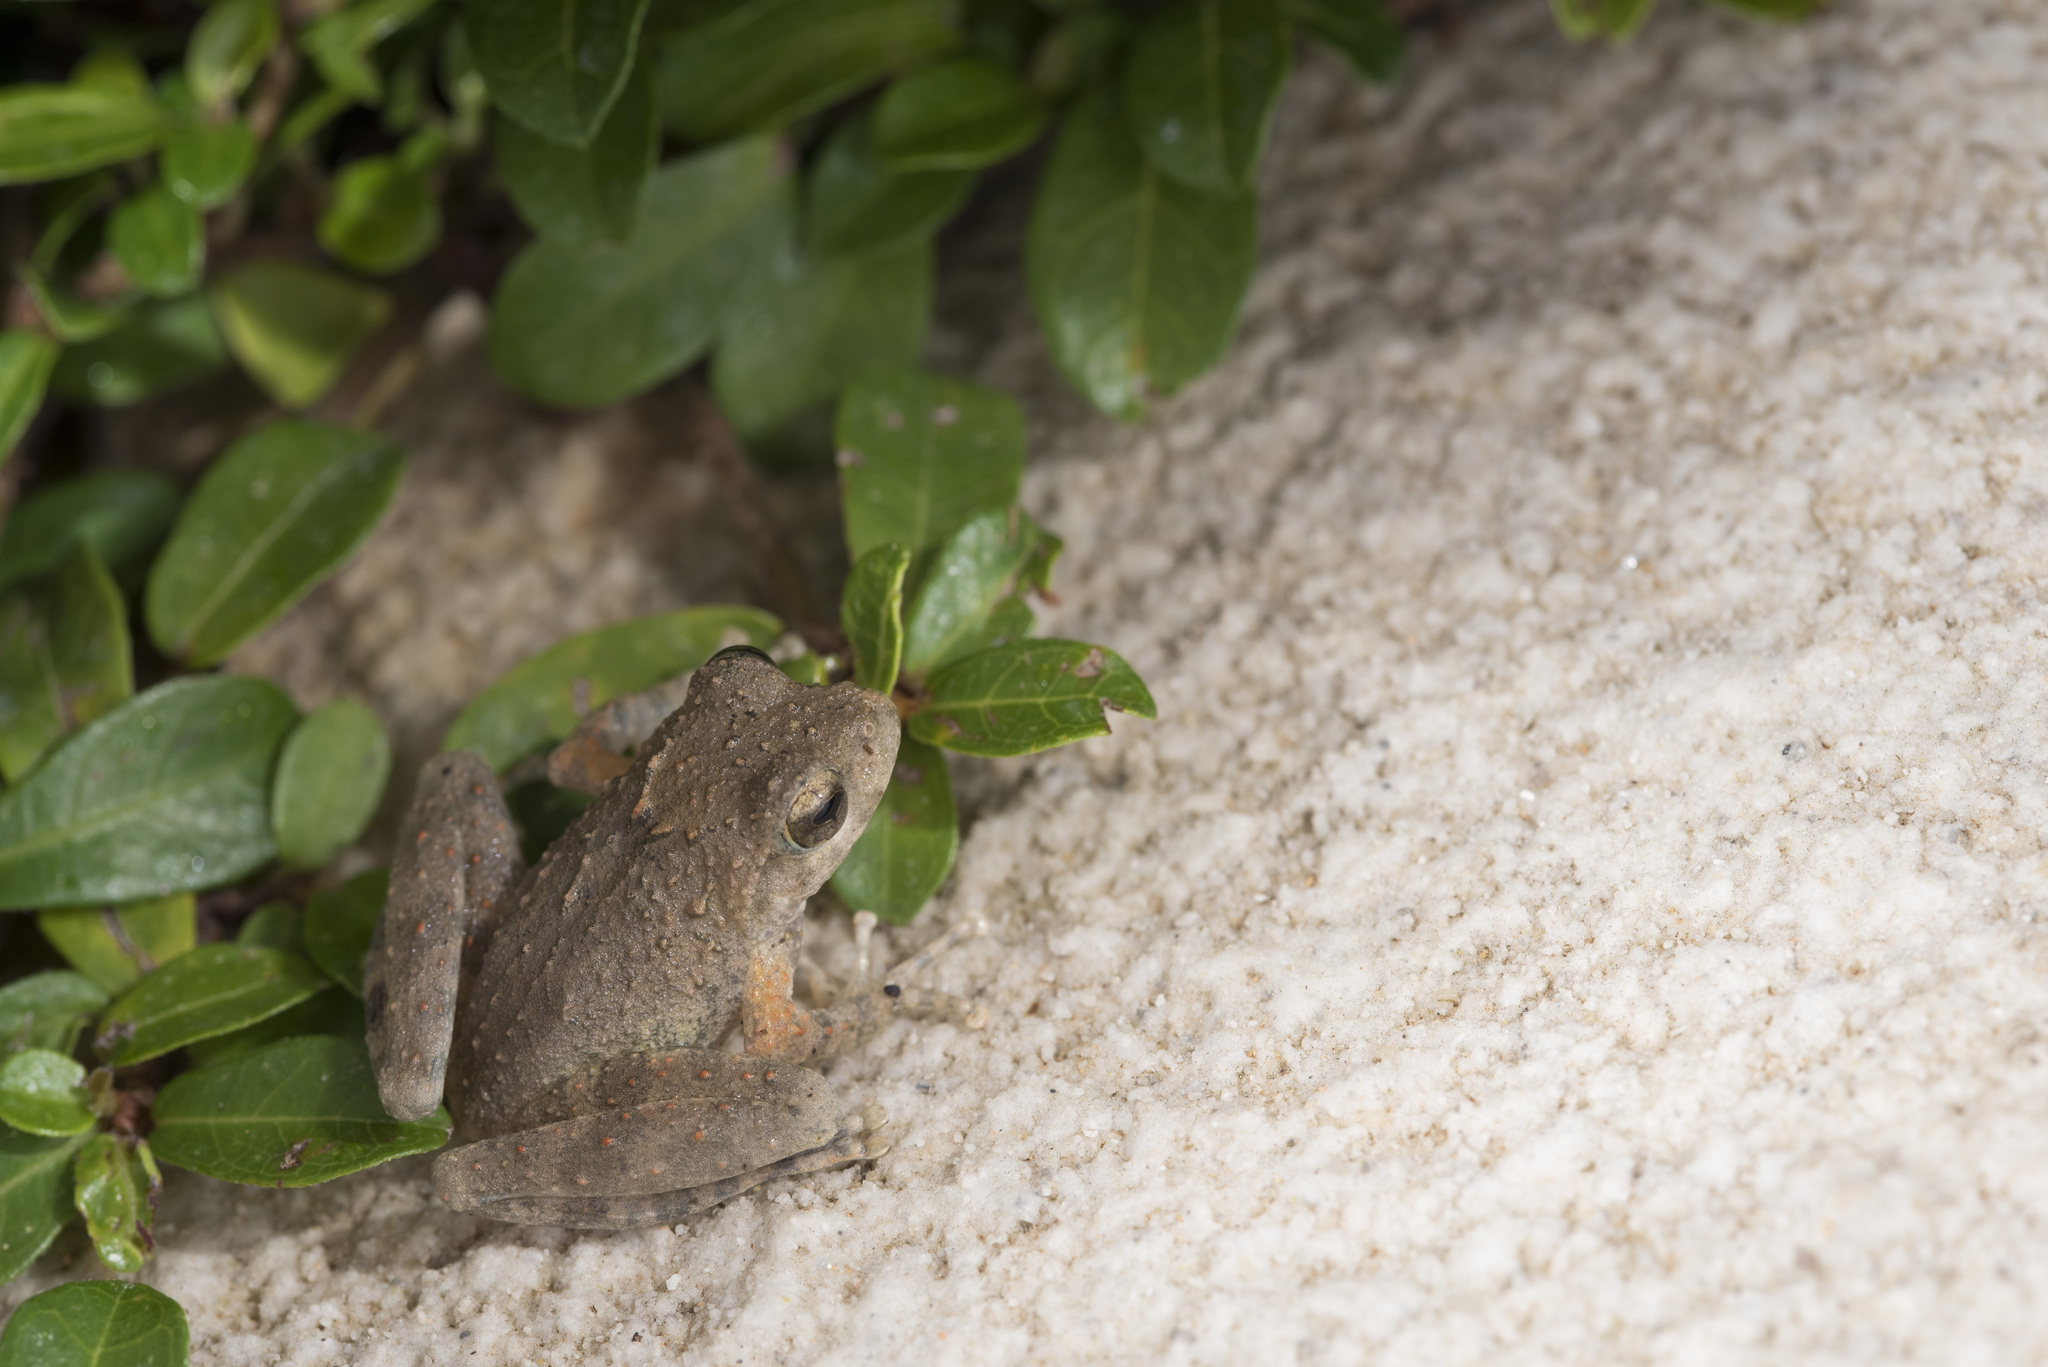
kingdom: Animalia
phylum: Chordata
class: Amphibia
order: Anura
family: Rhacophoridae
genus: Buergeria
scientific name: Buergeria otai
